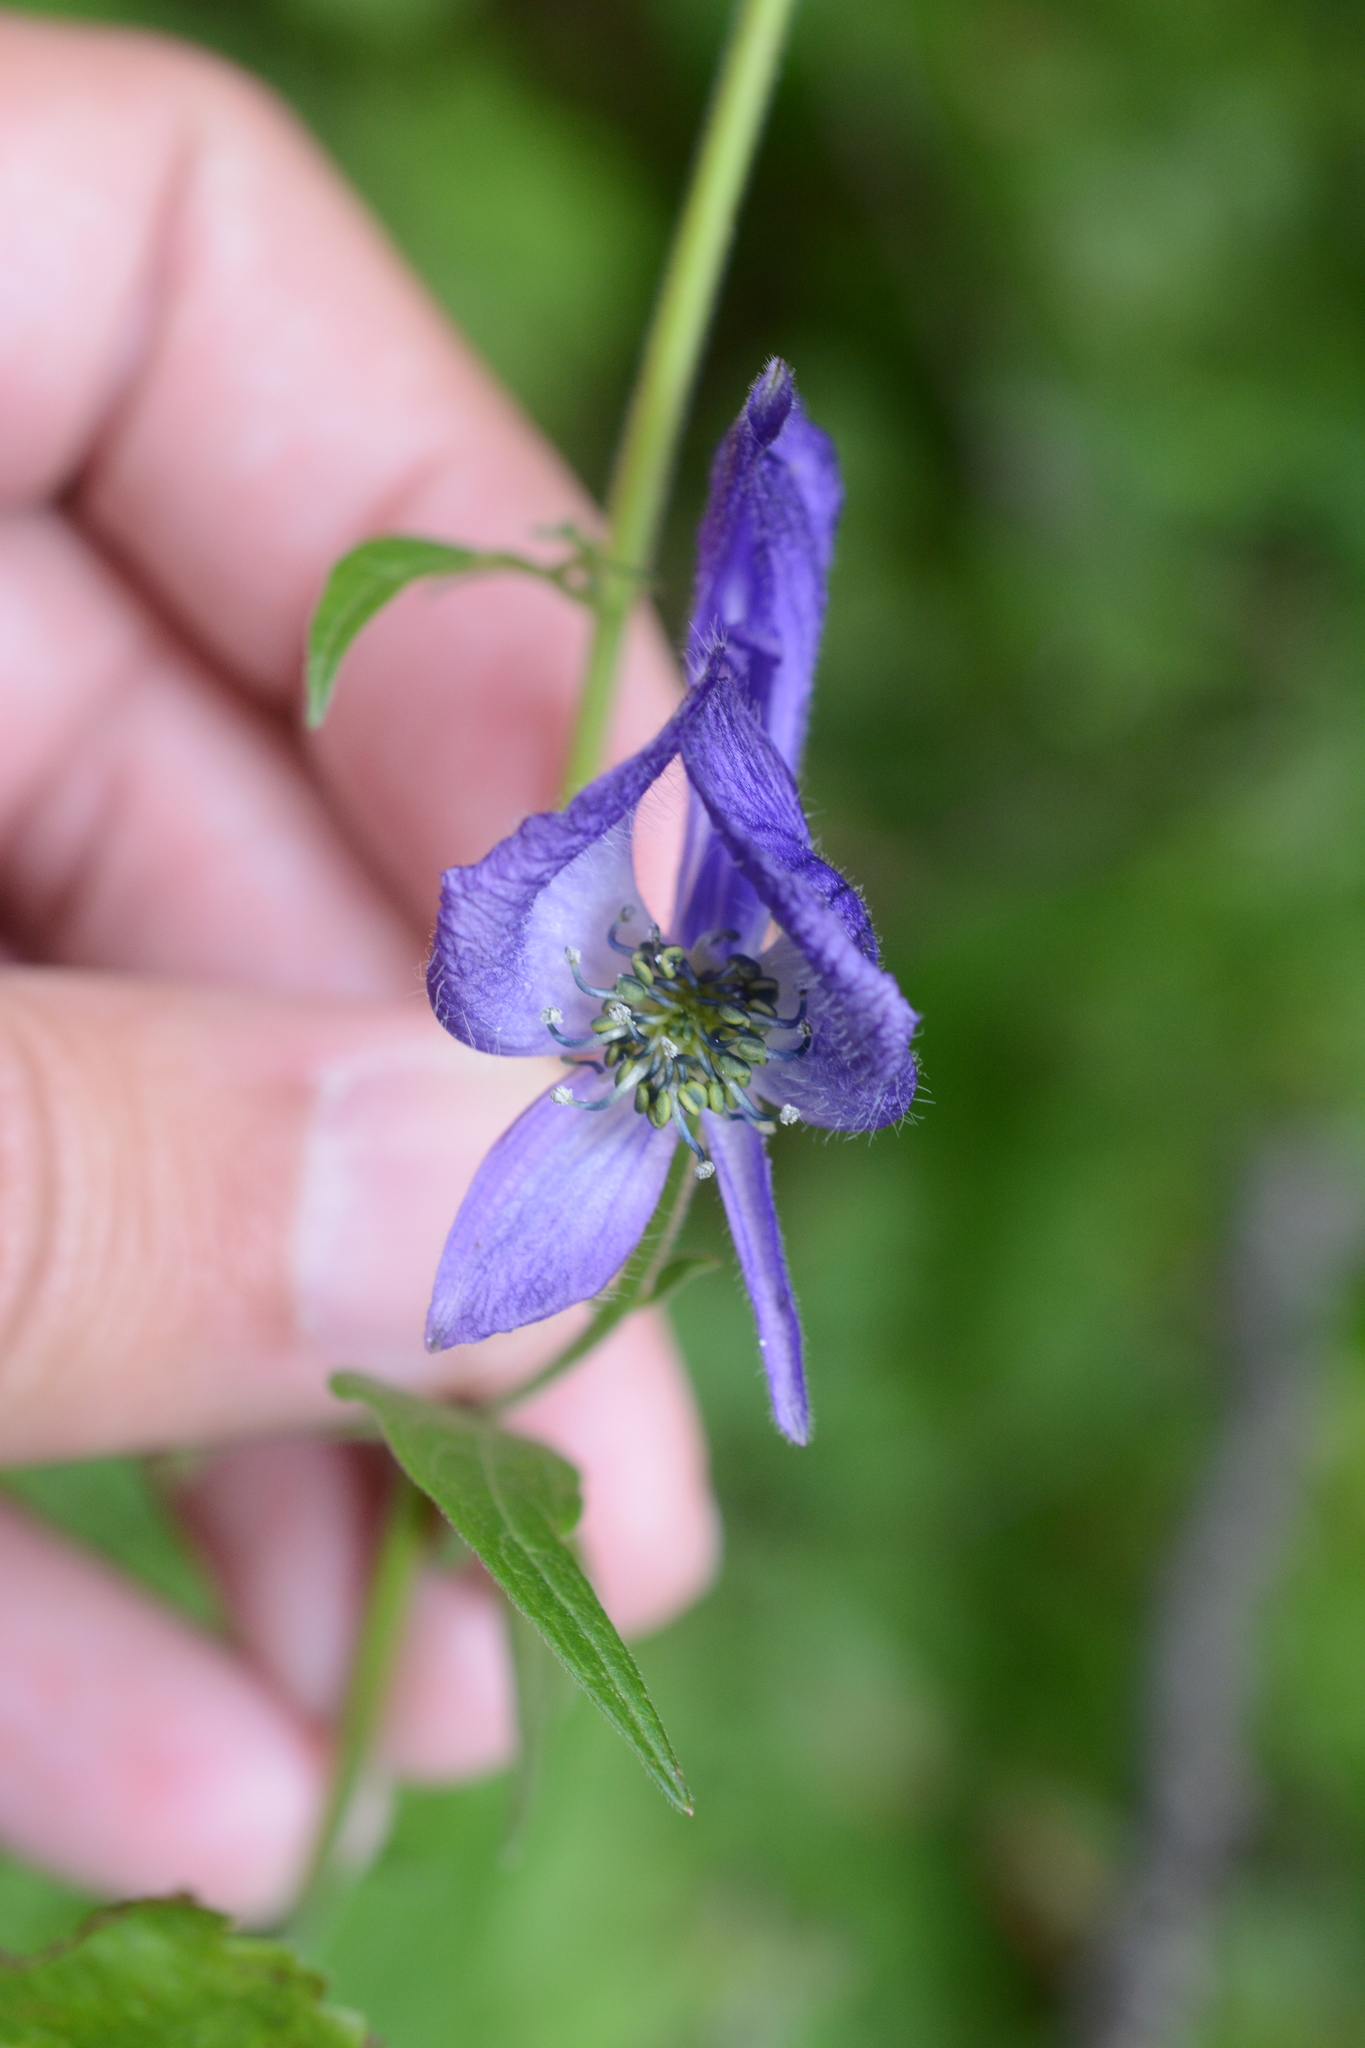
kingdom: Plantae
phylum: Tracheophyta
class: Magnoliopsida
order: Ranunculales
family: Ranunculaceae
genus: Aconitum
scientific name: Aconitum columbianum
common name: Columbia aconite
